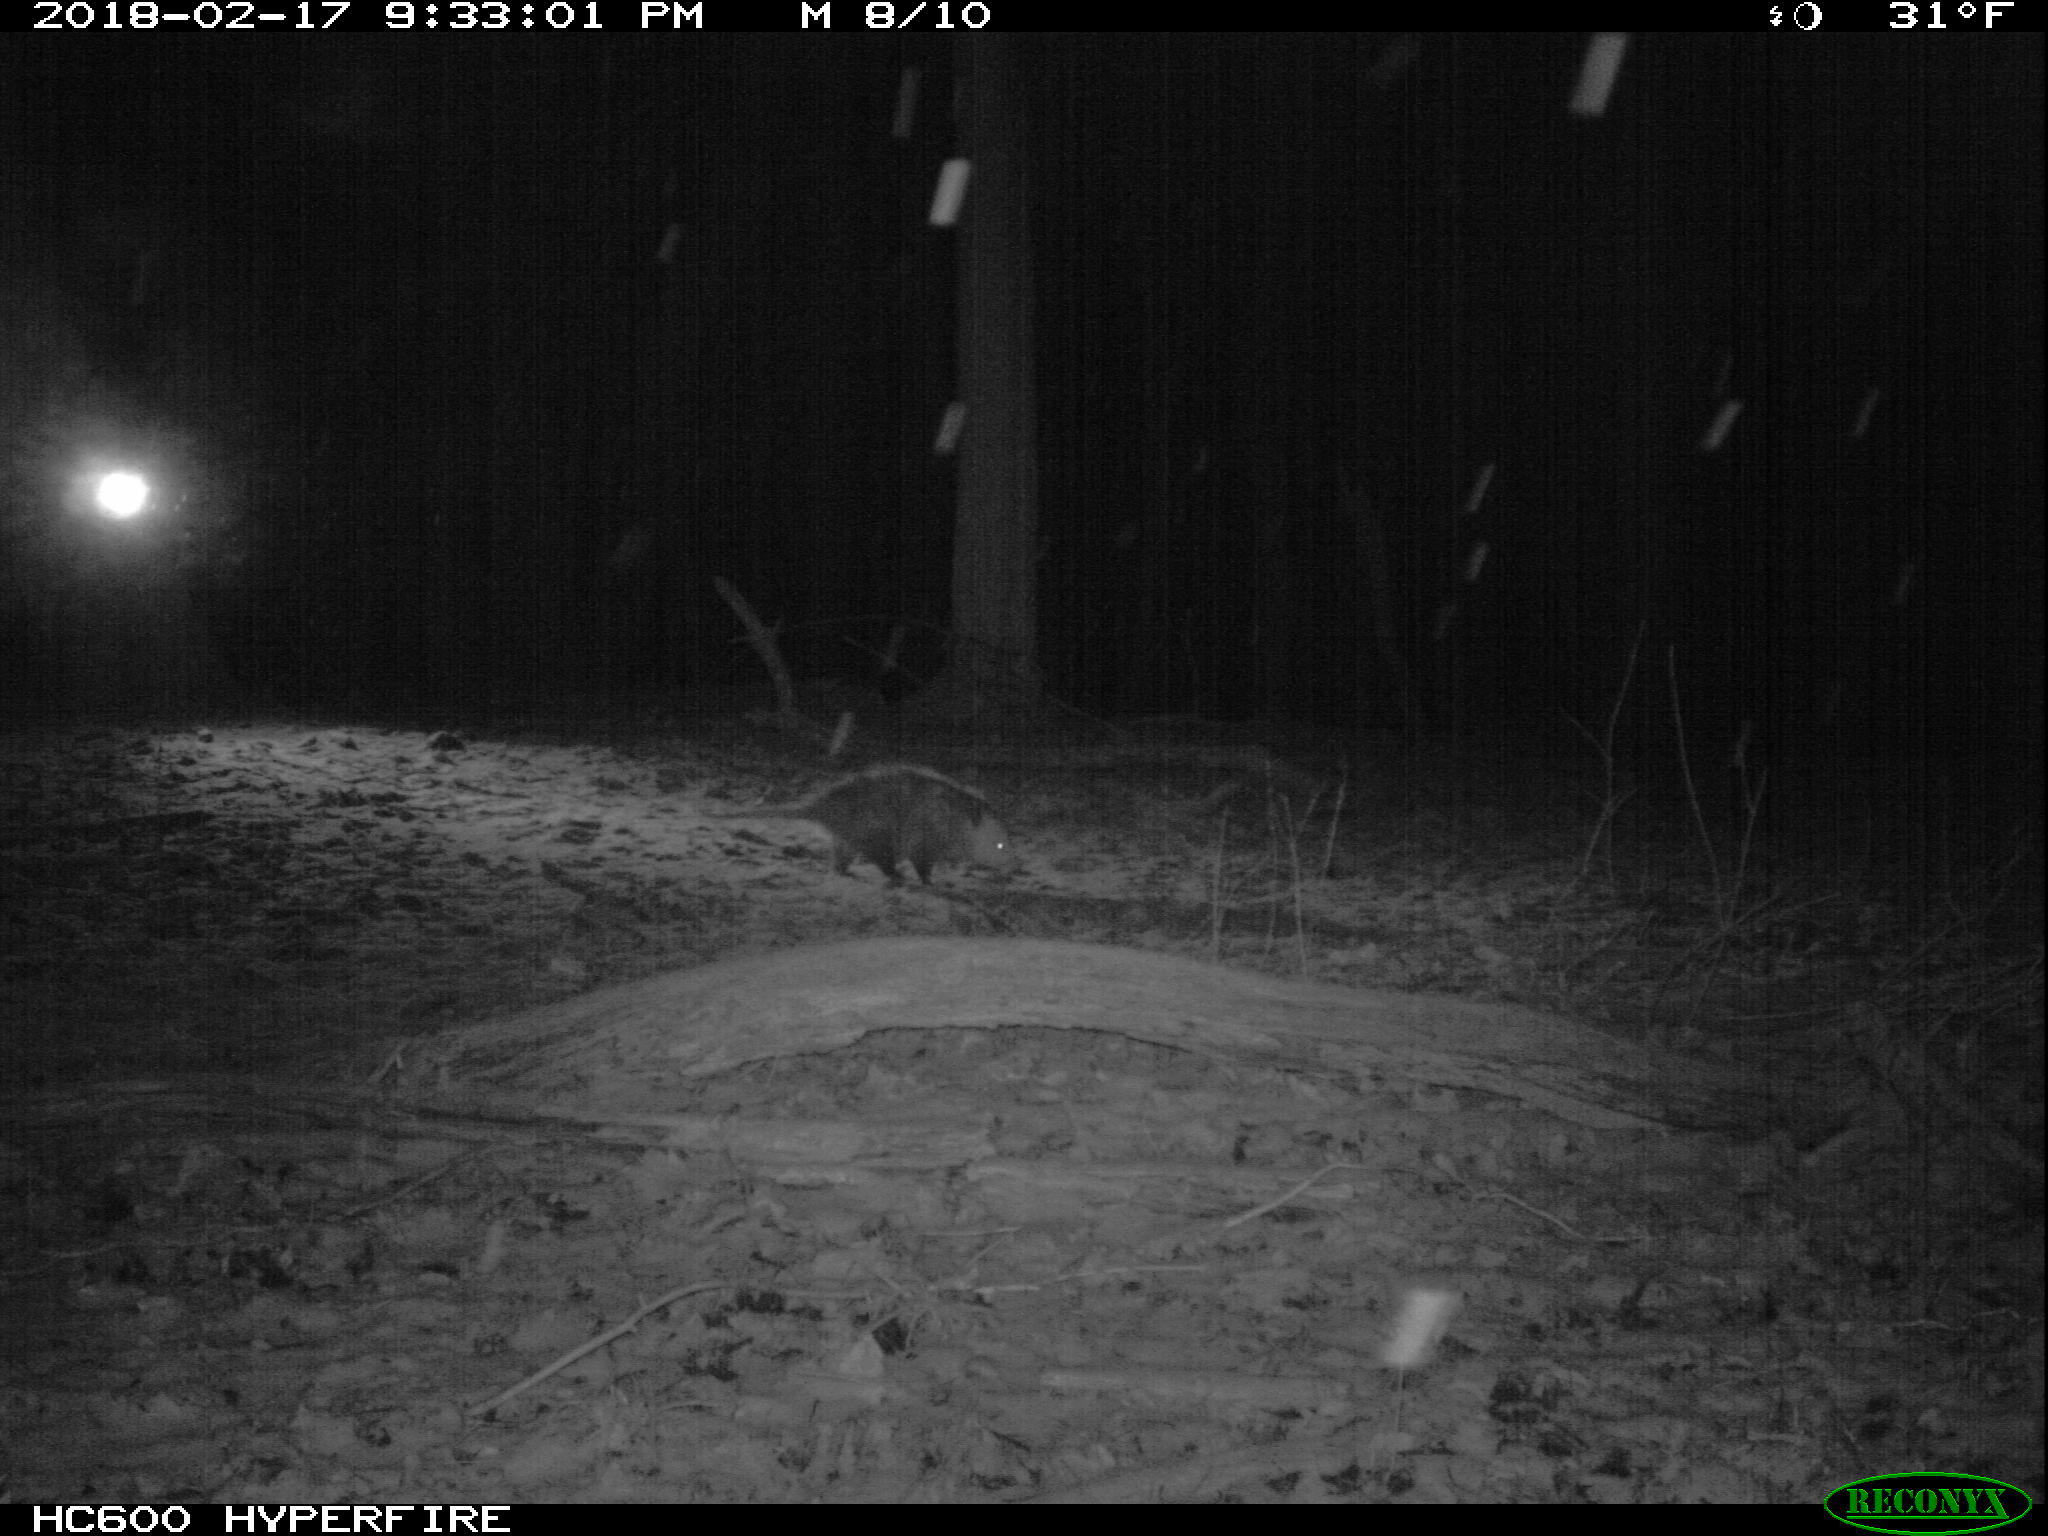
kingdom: Animalia
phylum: Chordata
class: Mammalia
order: Didelphimorphia
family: Didelphidae
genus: Didelphis
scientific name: Didelphis virginiana
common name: Virginia opossum
